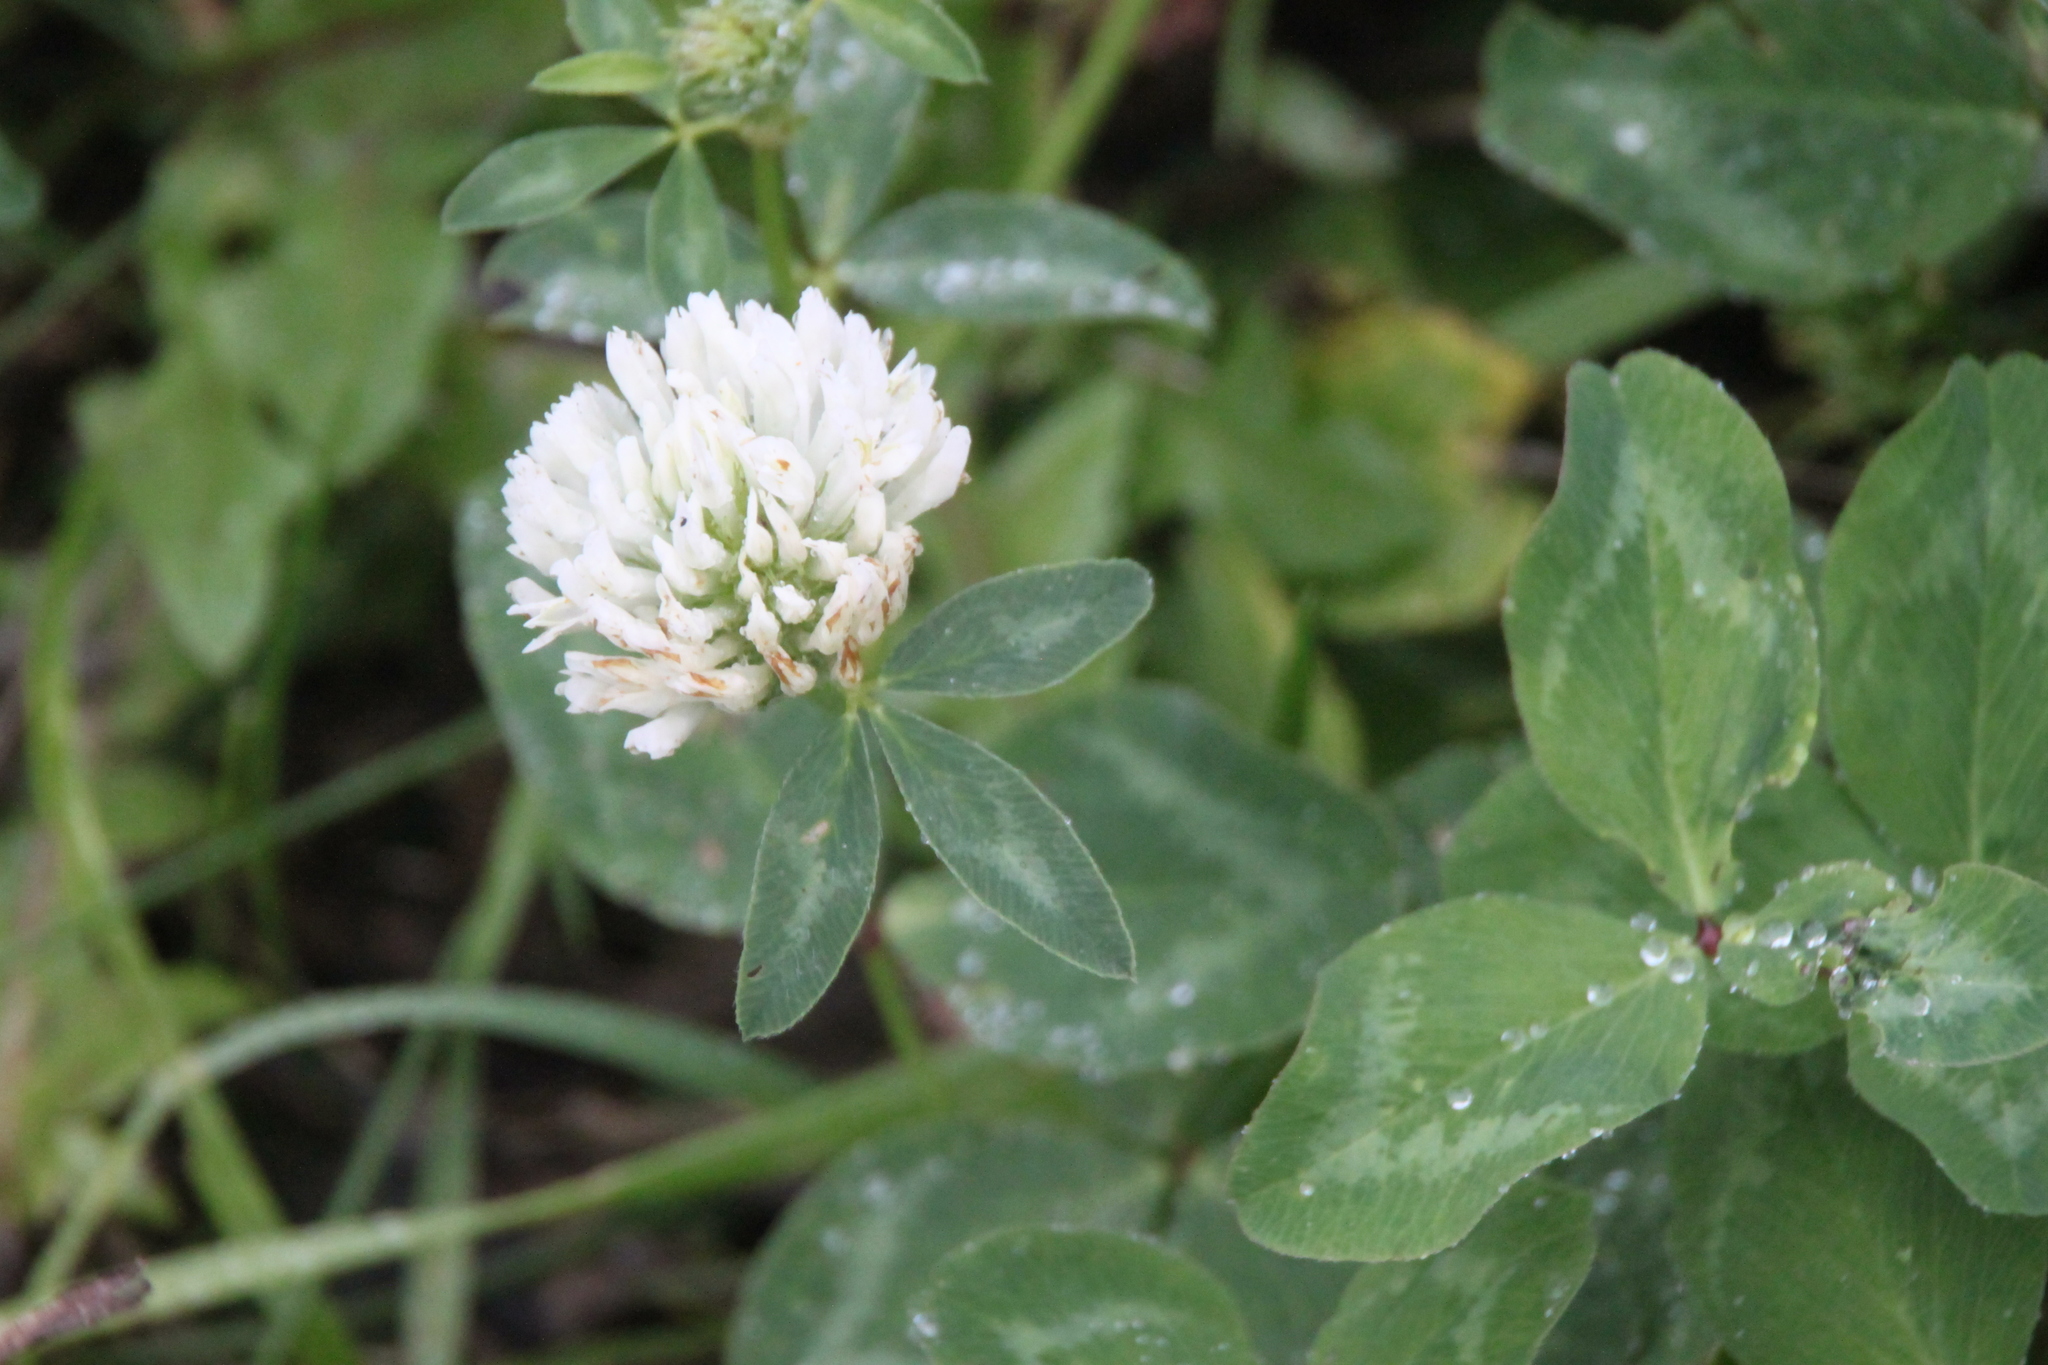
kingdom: Plantae
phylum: Tracheophyta
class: Magnoliopsida
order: Fabales
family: Fabaceae
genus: Trifolium
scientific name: Trifolium pratense
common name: Red clover
